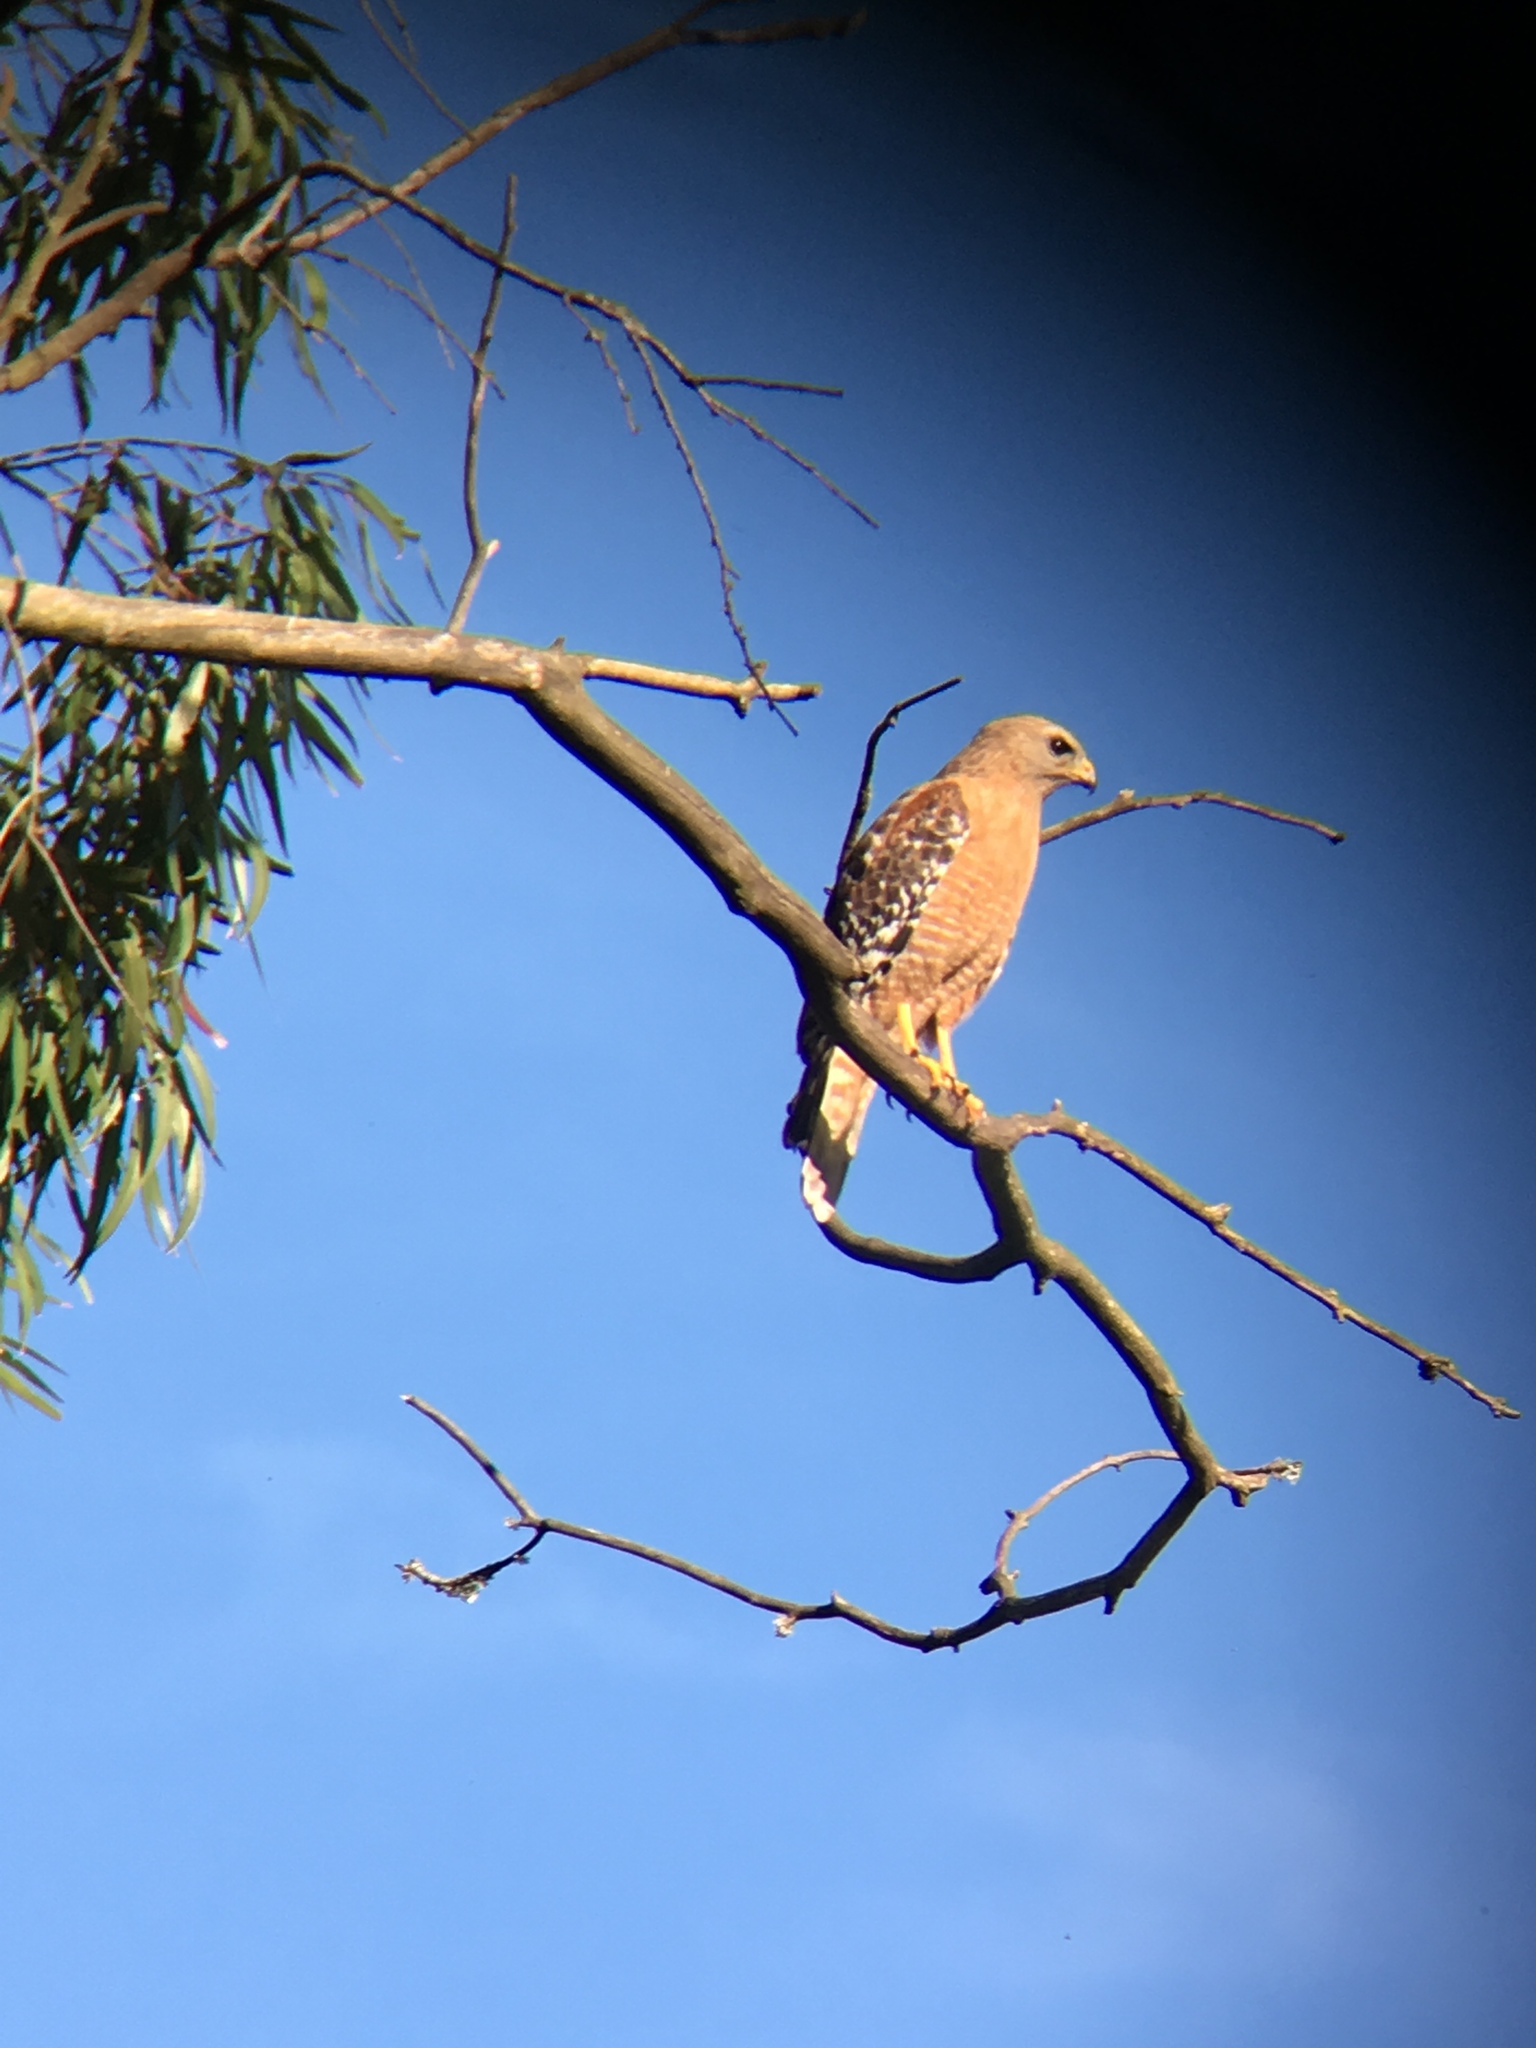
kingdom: Animalia
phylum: Chordata
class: Aves
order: Accipitriformes
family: Accipitridae
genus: Buteo
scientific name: Buteo lineatus
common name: Red-shouldered hawk
